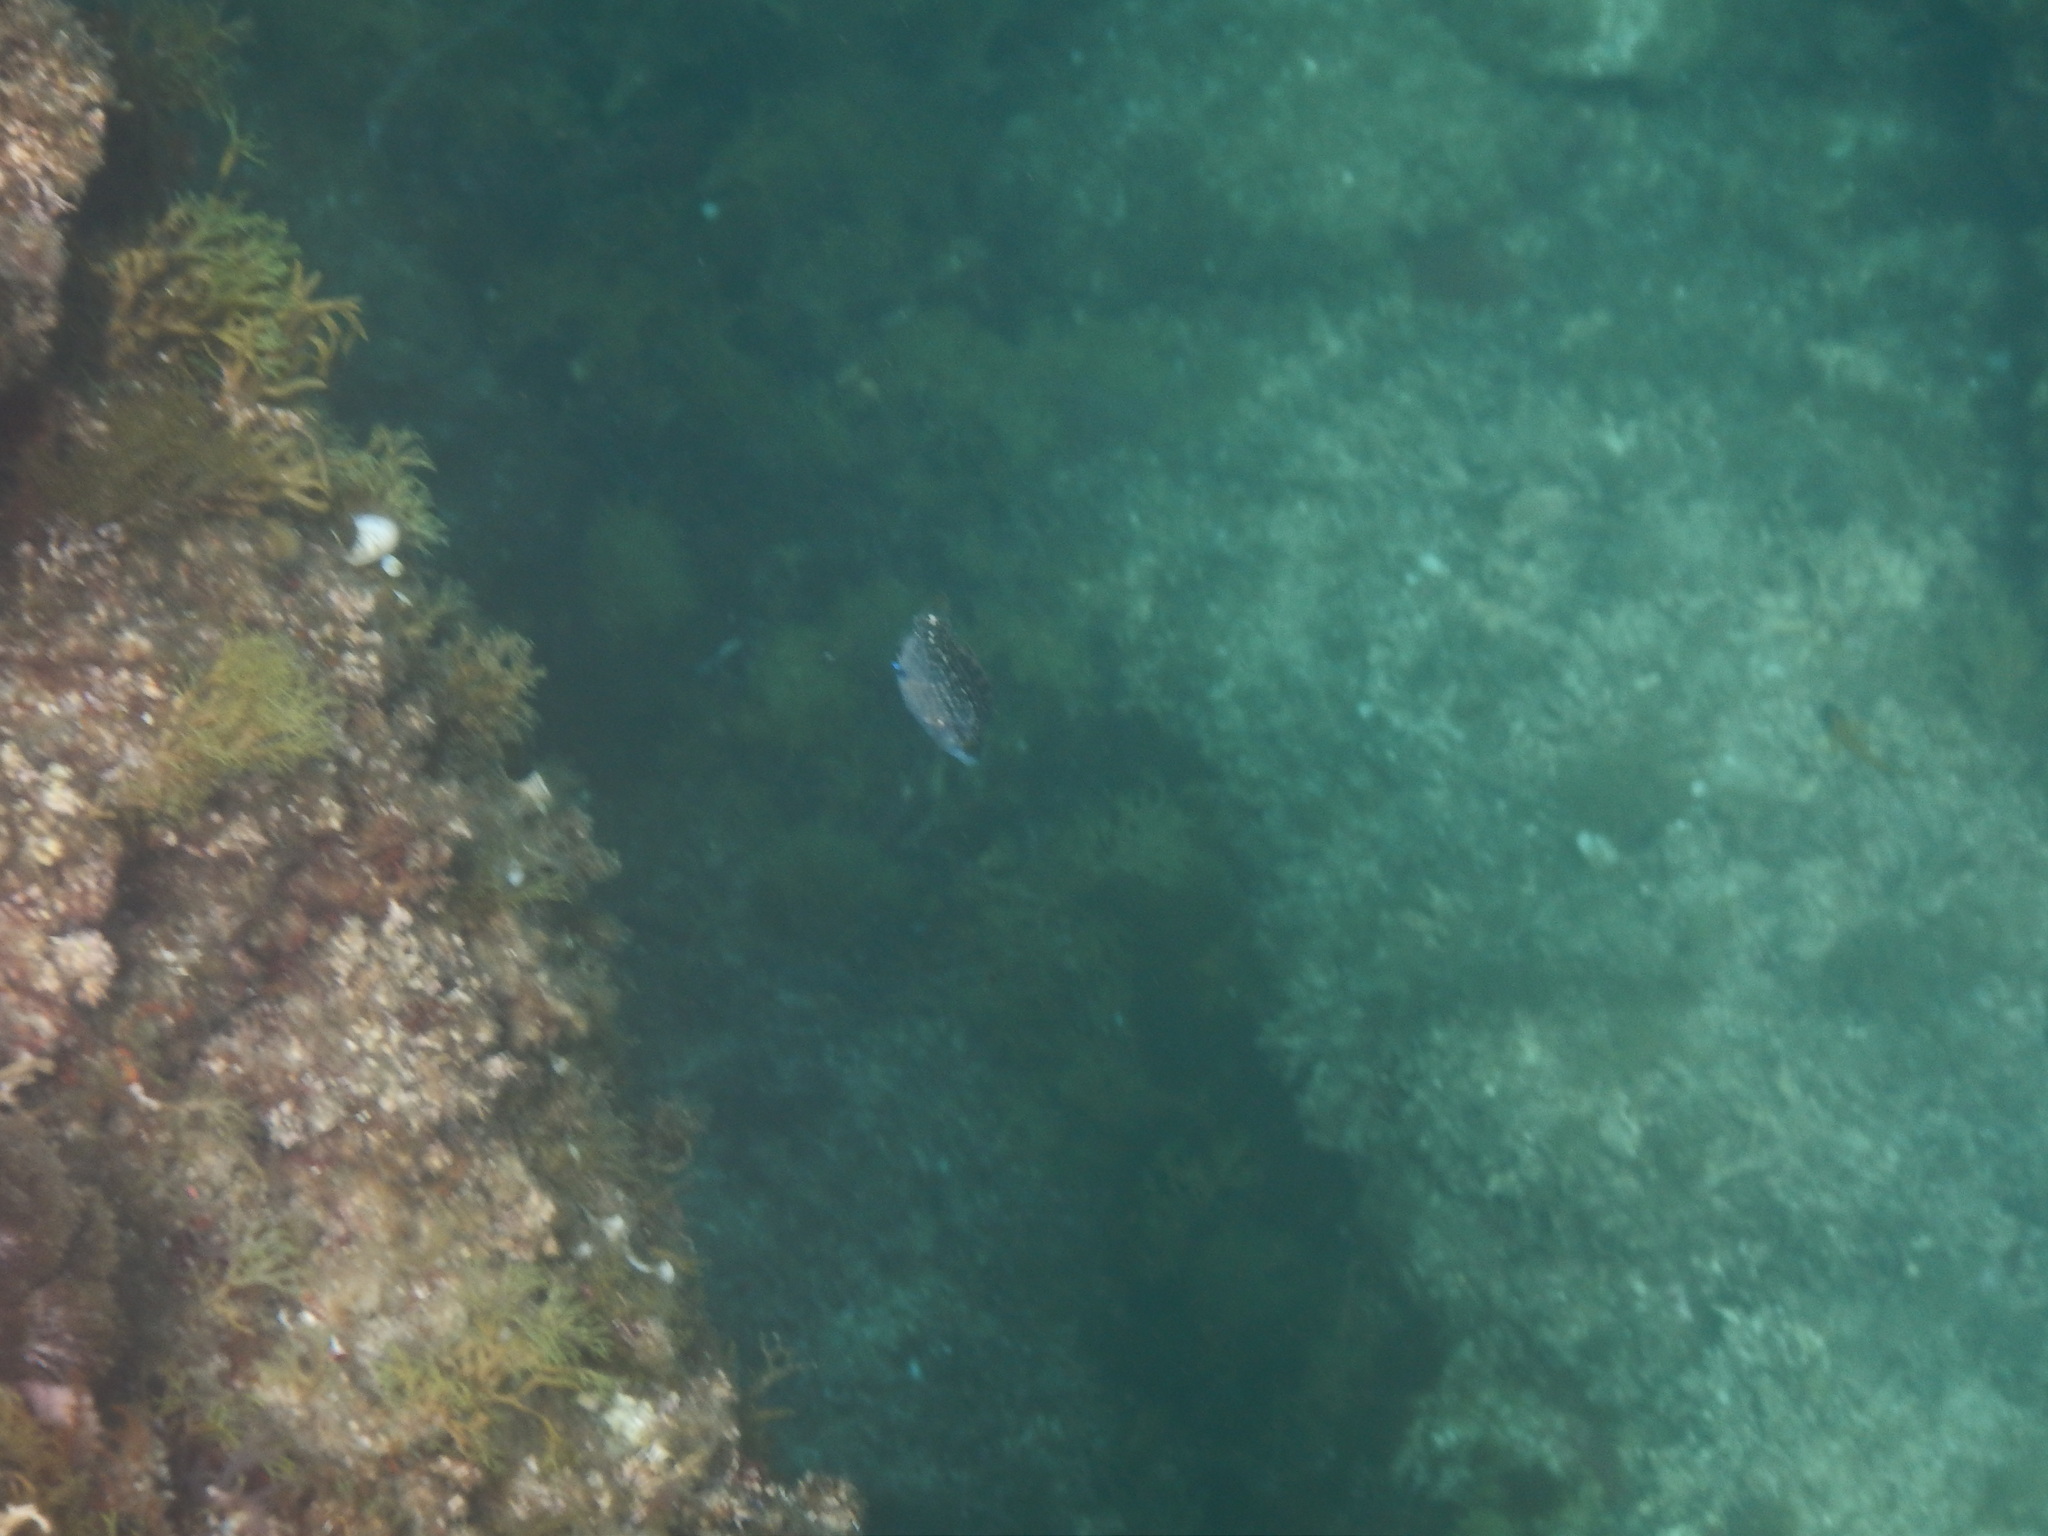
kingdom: Animalia
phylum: Chordata
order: Perciformes
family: Labridae
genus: Symphodus
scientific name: Symphodus rostratus
